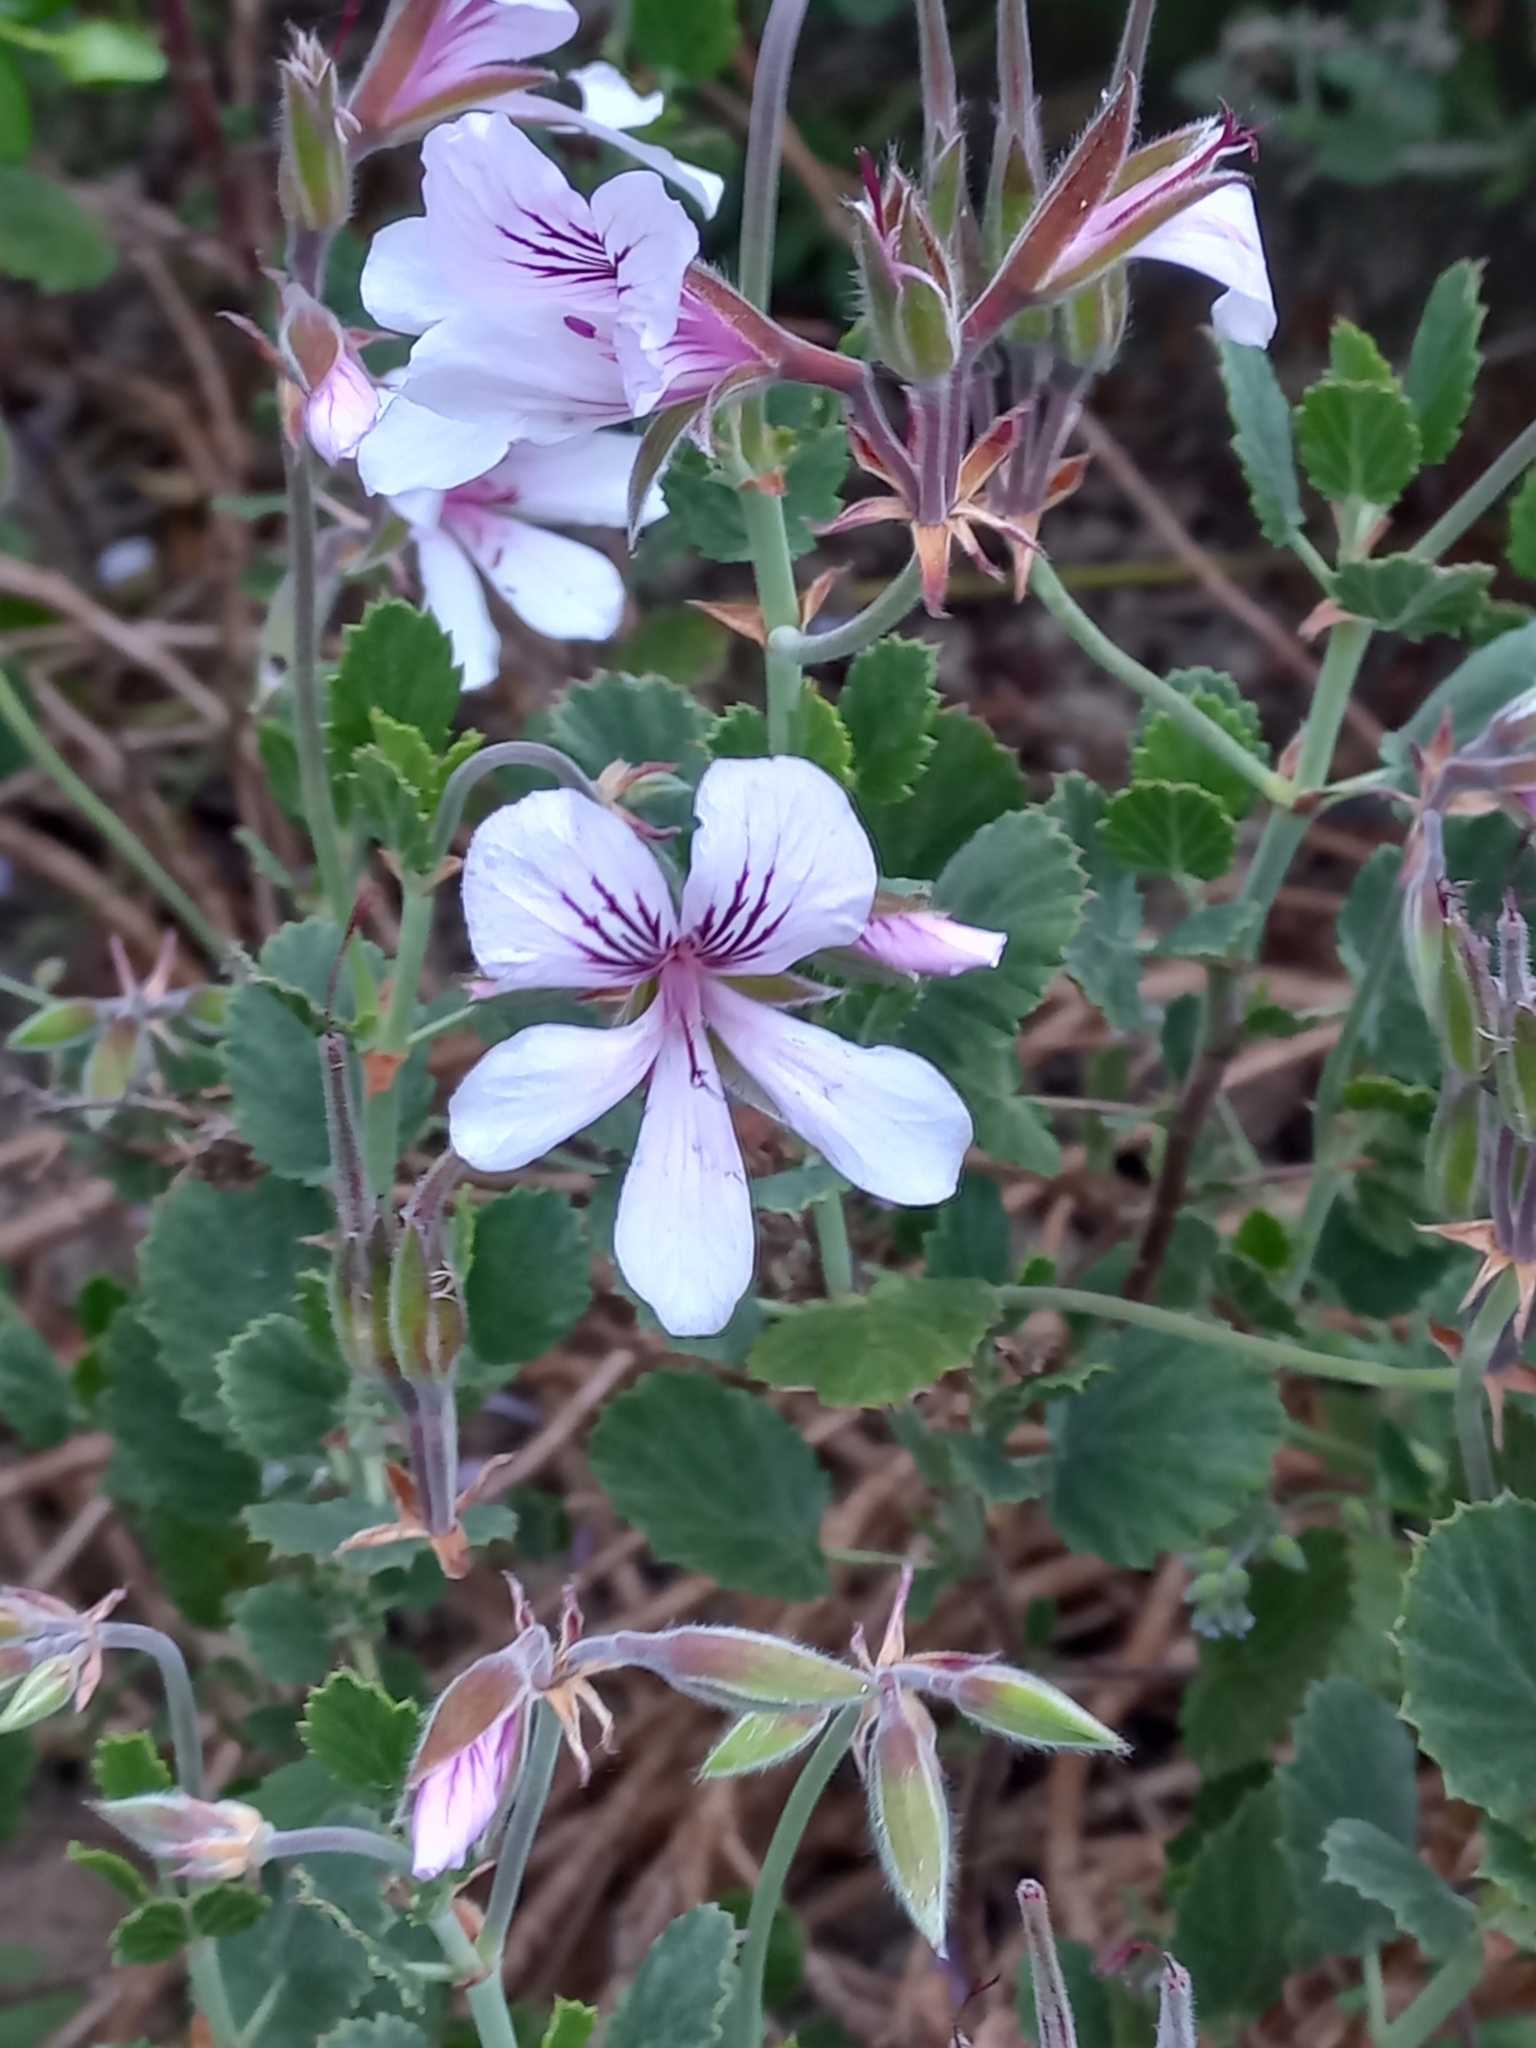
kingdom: Plantae
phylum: Tracheophyta
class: Magnoliopsida
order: Geraniales
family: Geraniaceae
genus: Pelargonium
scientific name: Pelargonium betulinum
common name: Birch-leaf pelargonium
